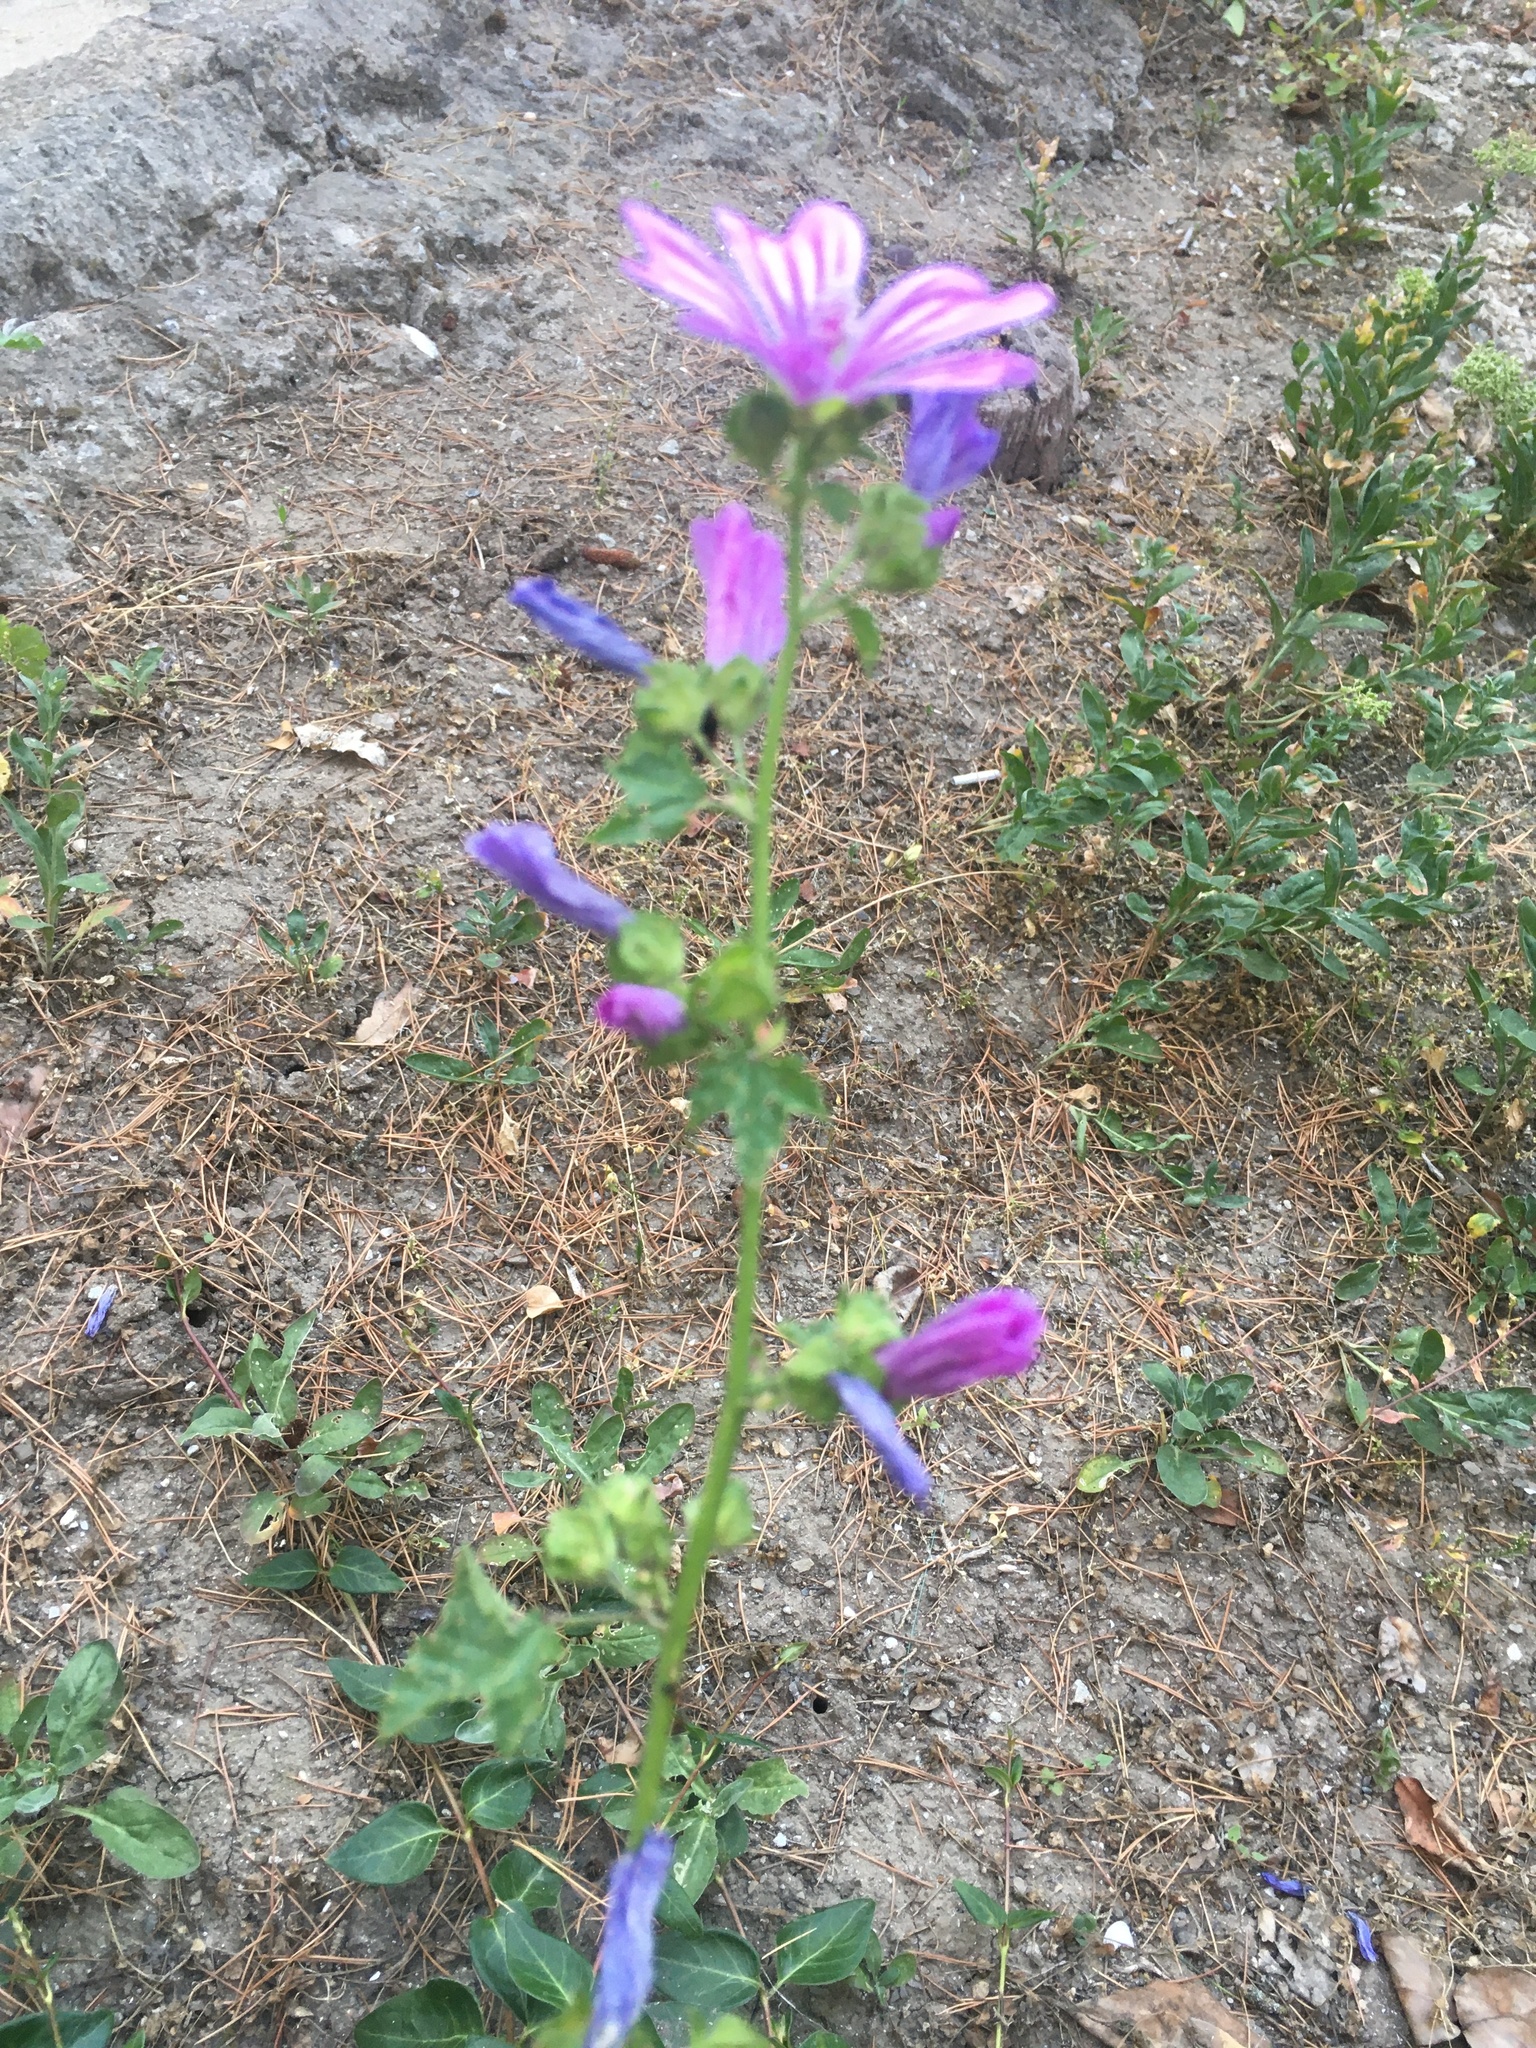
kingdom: Plantae
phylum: Tracheophyta
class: Magnoliopsida
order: Malvales
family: Malvaceae
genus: Malva
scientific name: Malva sylvestris
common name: Common mallow
